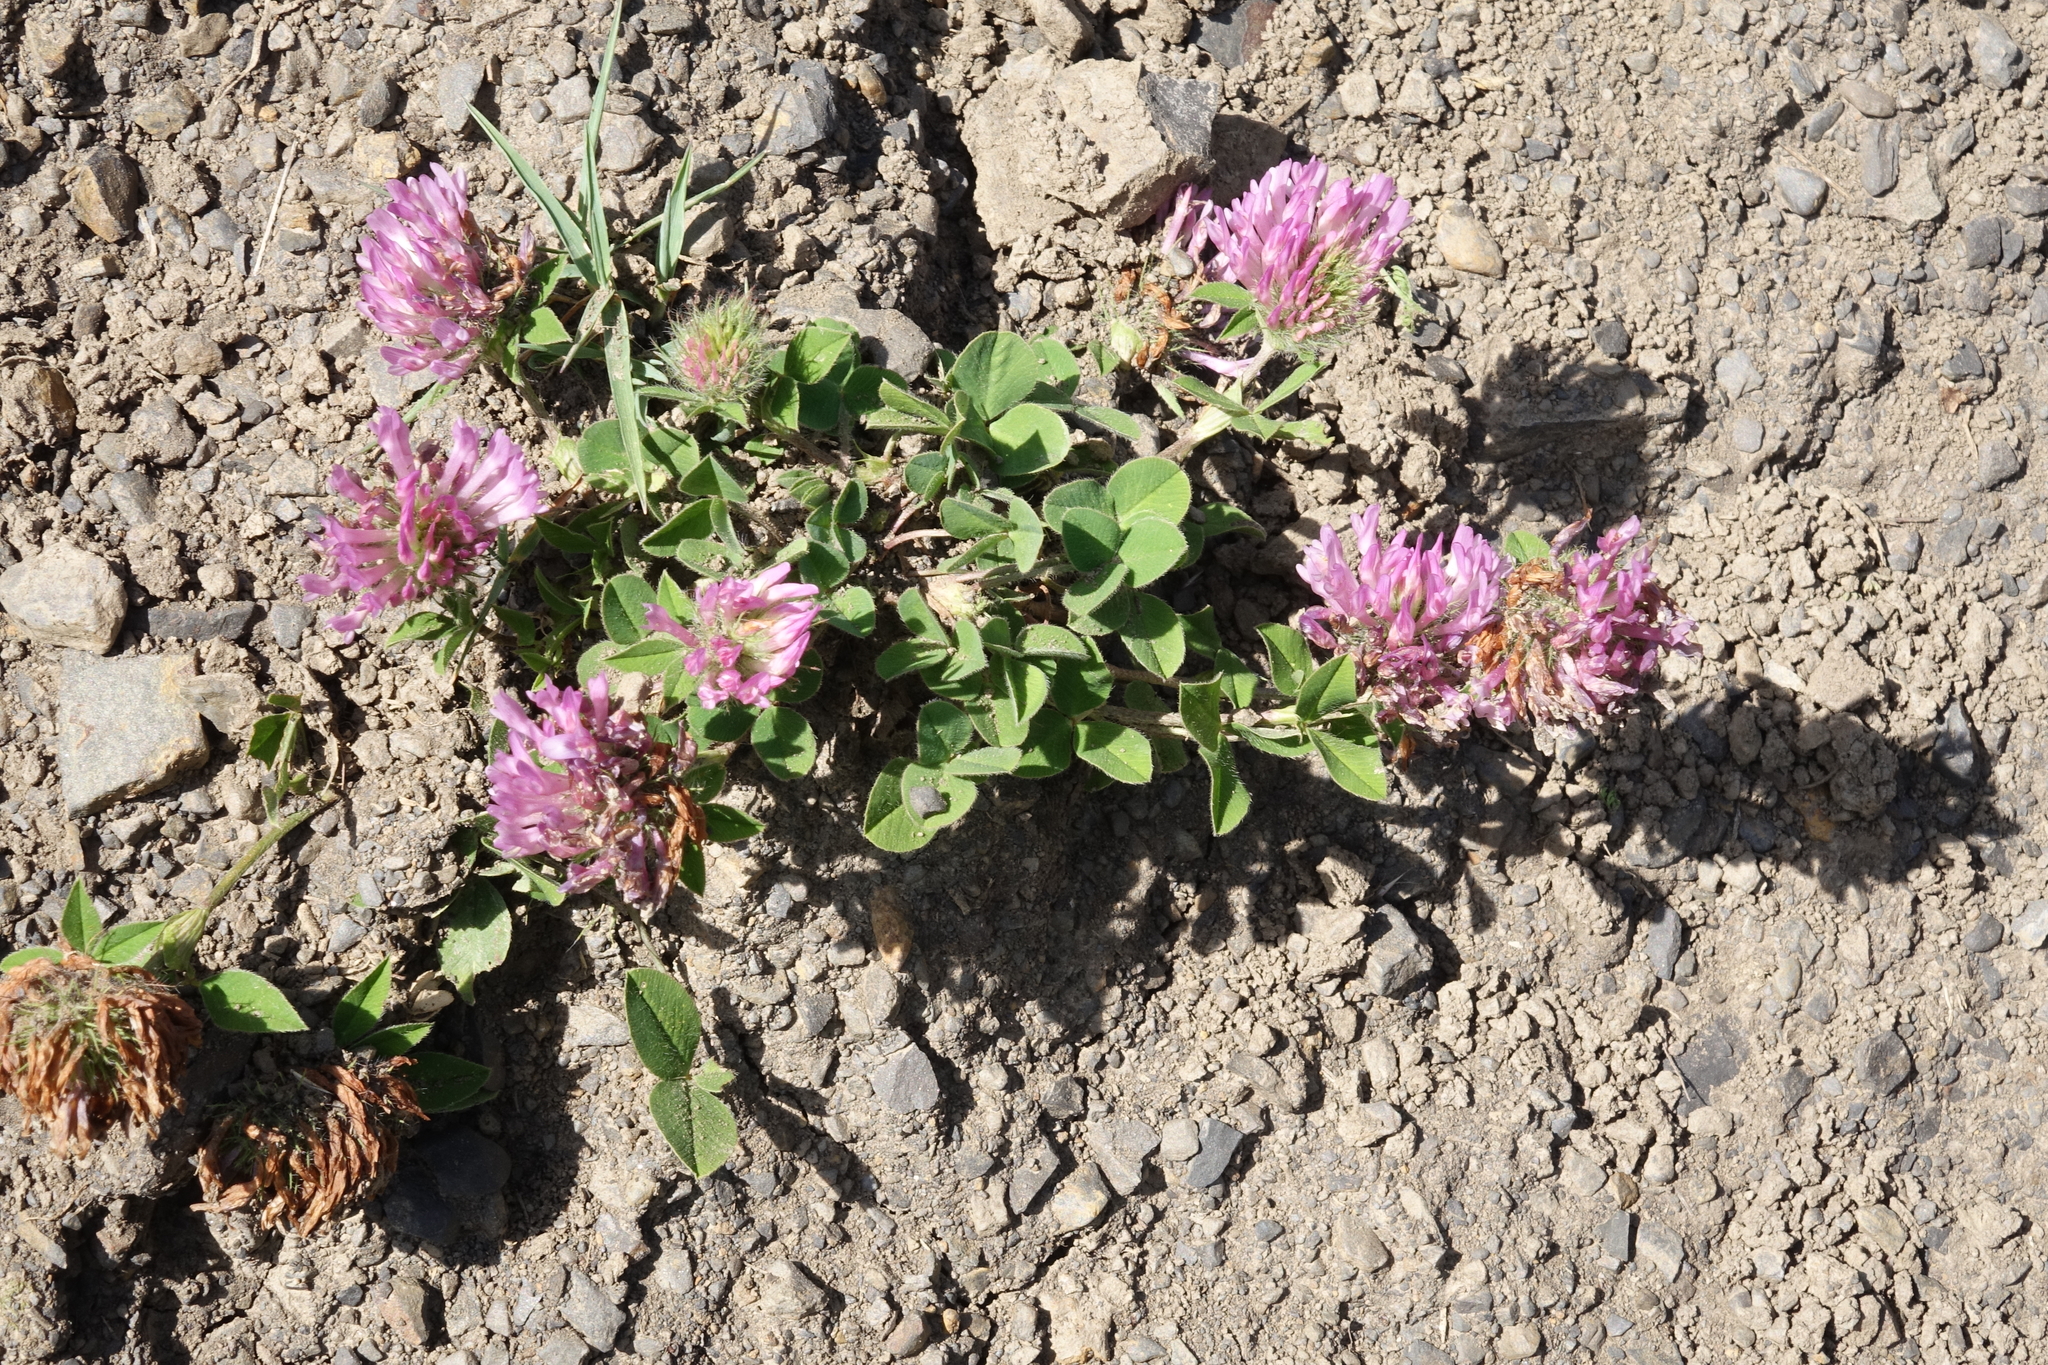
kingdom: Plantae
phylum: Tracheophyta
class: Magnoliopsida
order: Fabales
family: Fabaceae
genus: Trifolium
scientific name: Trifolium pratense
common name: Red clover
